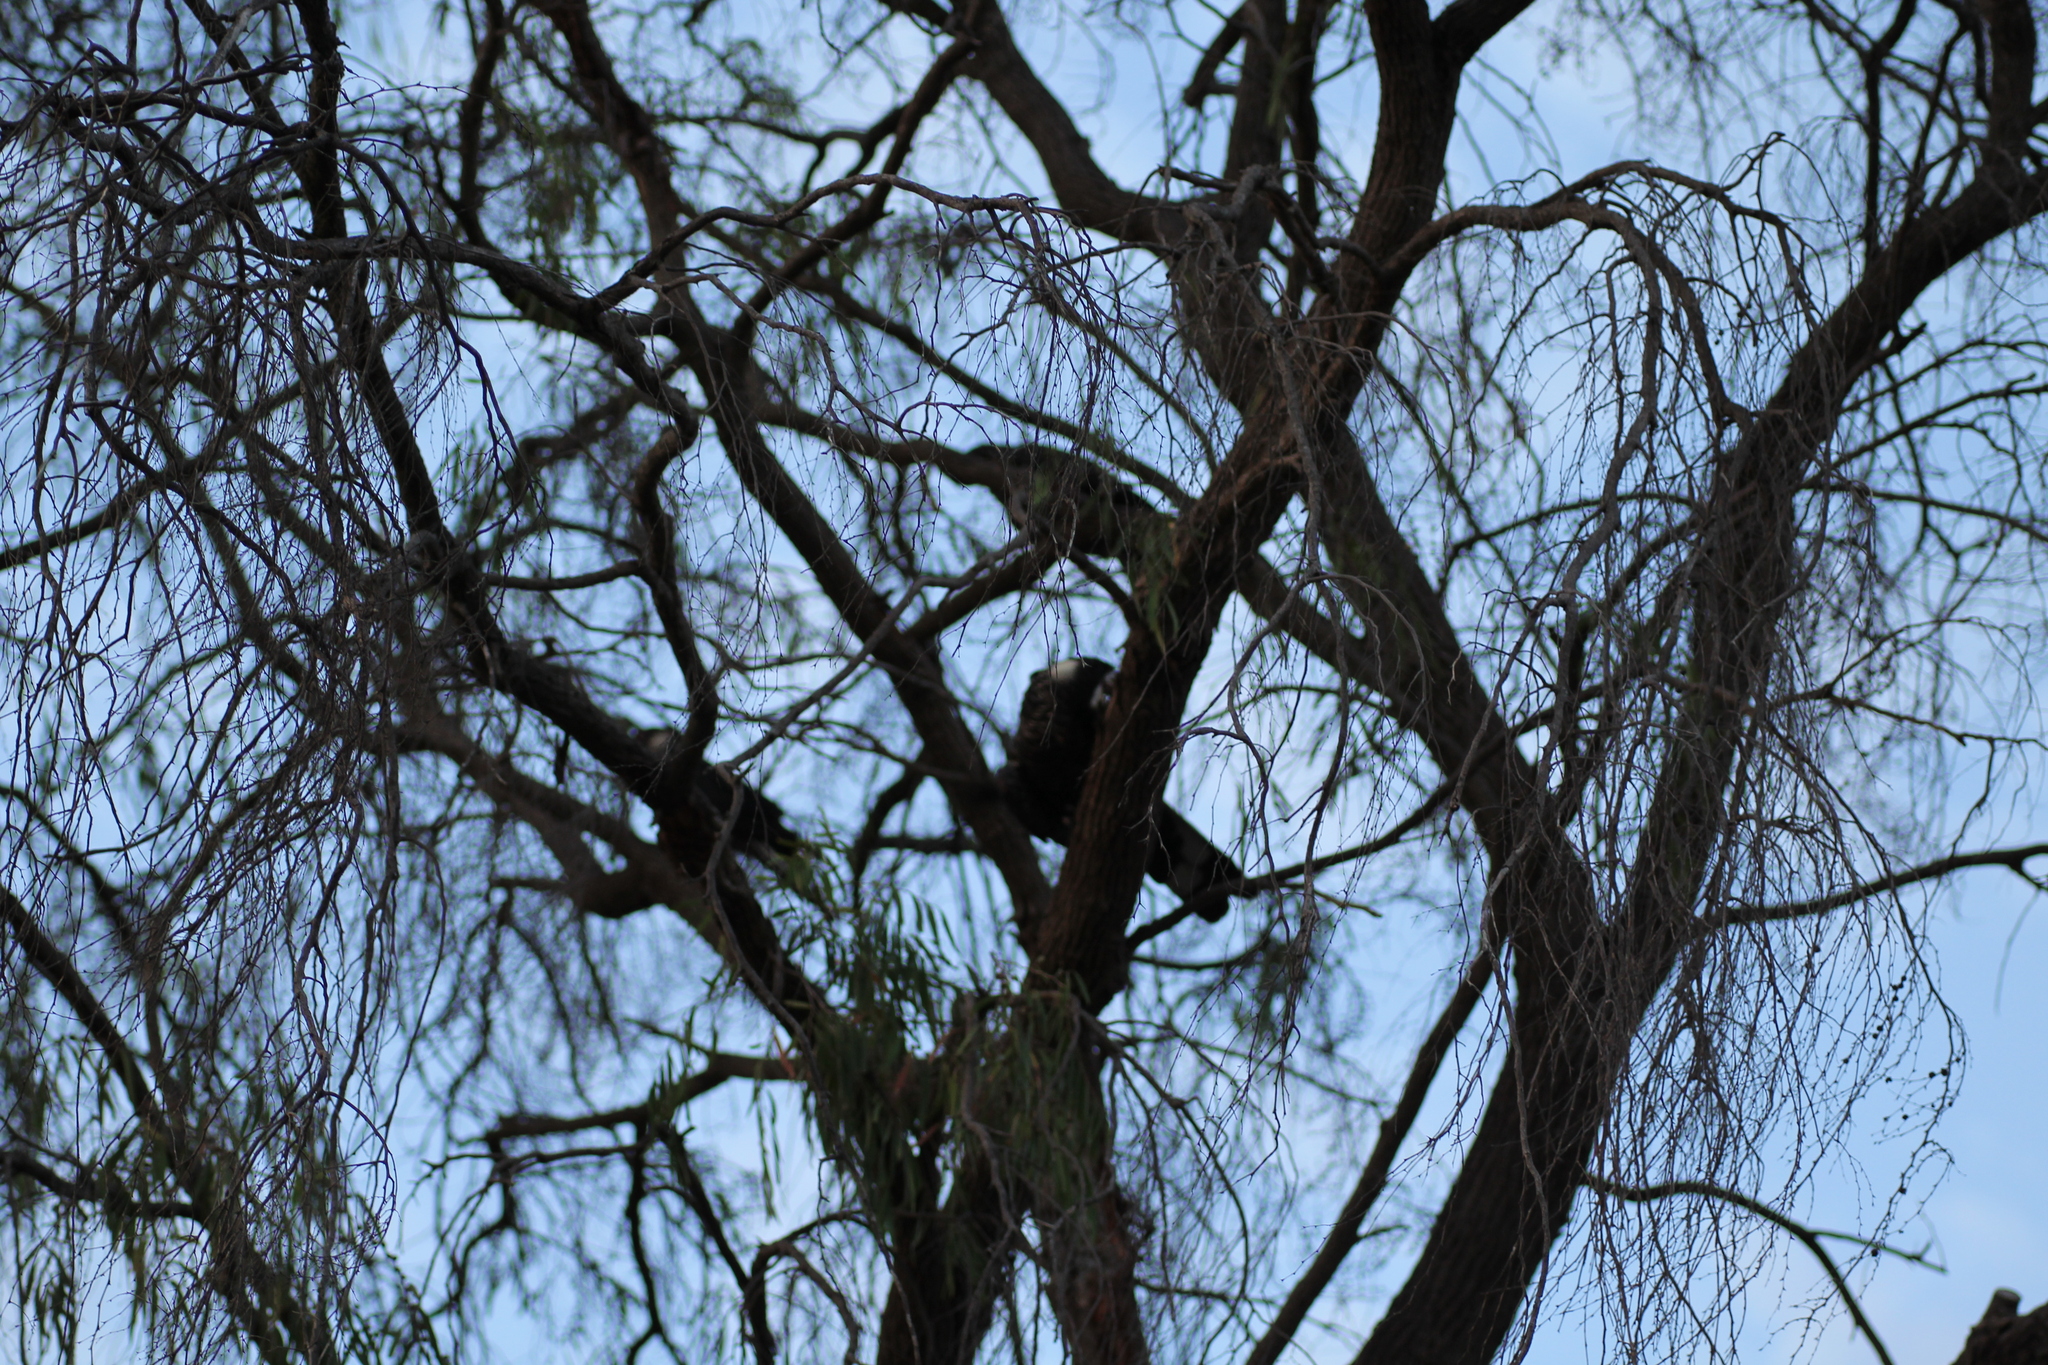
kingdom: Animalia
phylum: Chordata
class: Aves
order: Psittaciformes
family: Cacatuidae
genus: Zanda
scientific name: Zanda latirostris
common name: Short-billed black-cockatoo
